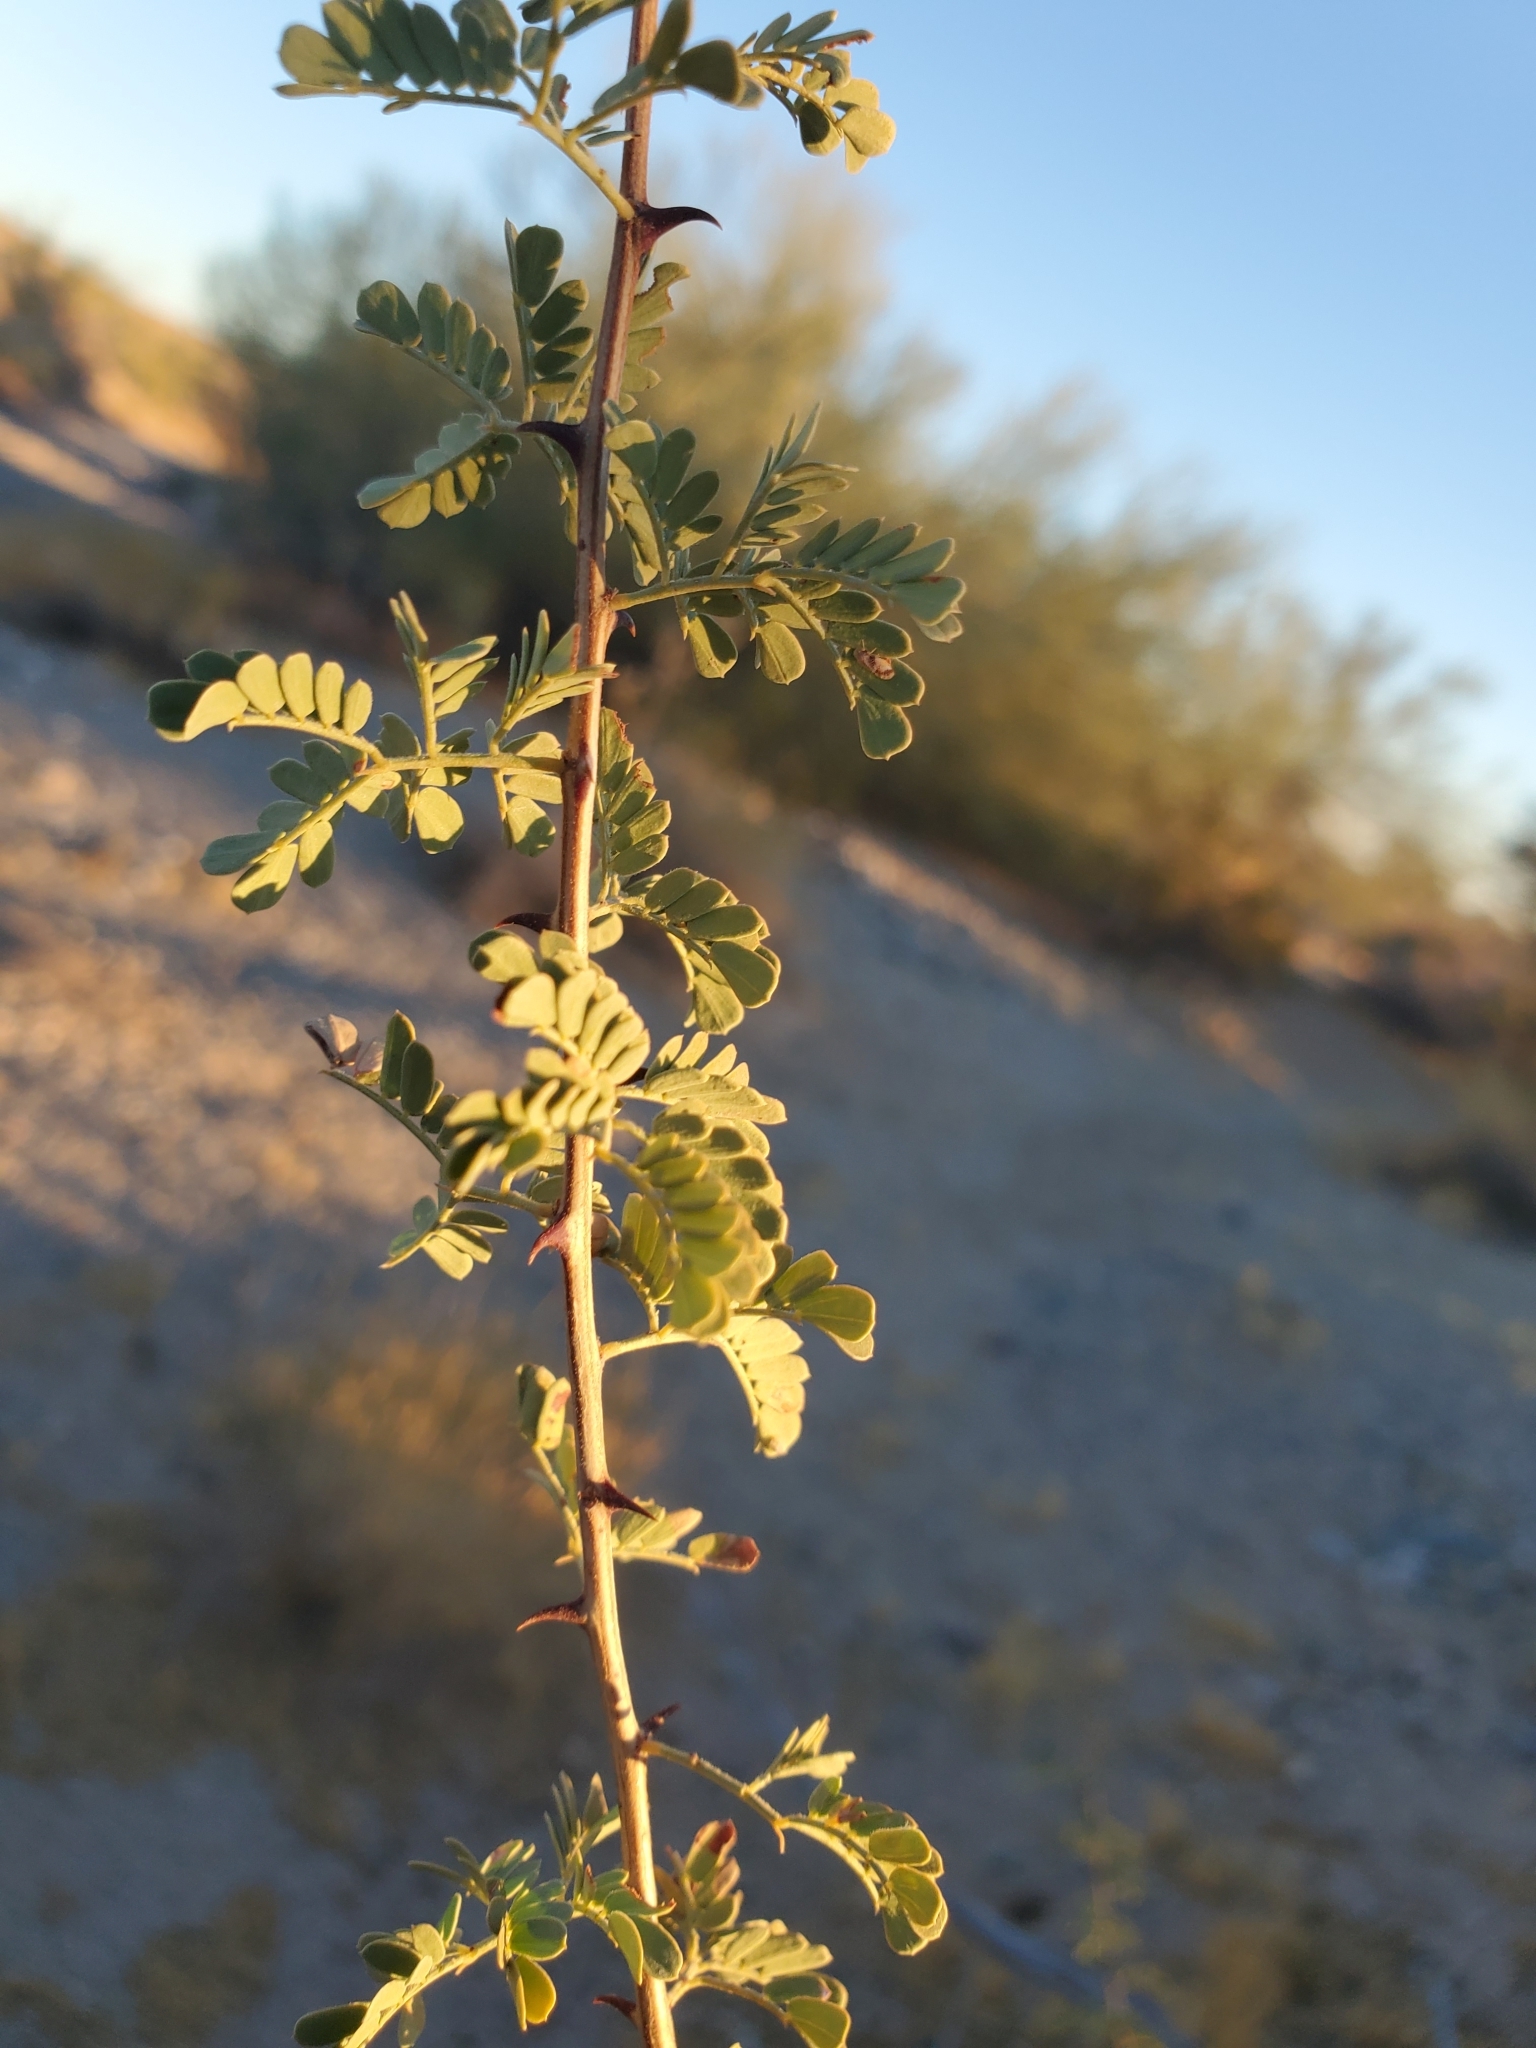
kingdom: Plantae
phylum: Tracheophyta
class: Magnoliopsida
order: Fabales
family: Fabaceae
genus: Senegalia
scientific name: Senegalia greggii
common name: Texas-mimosa
